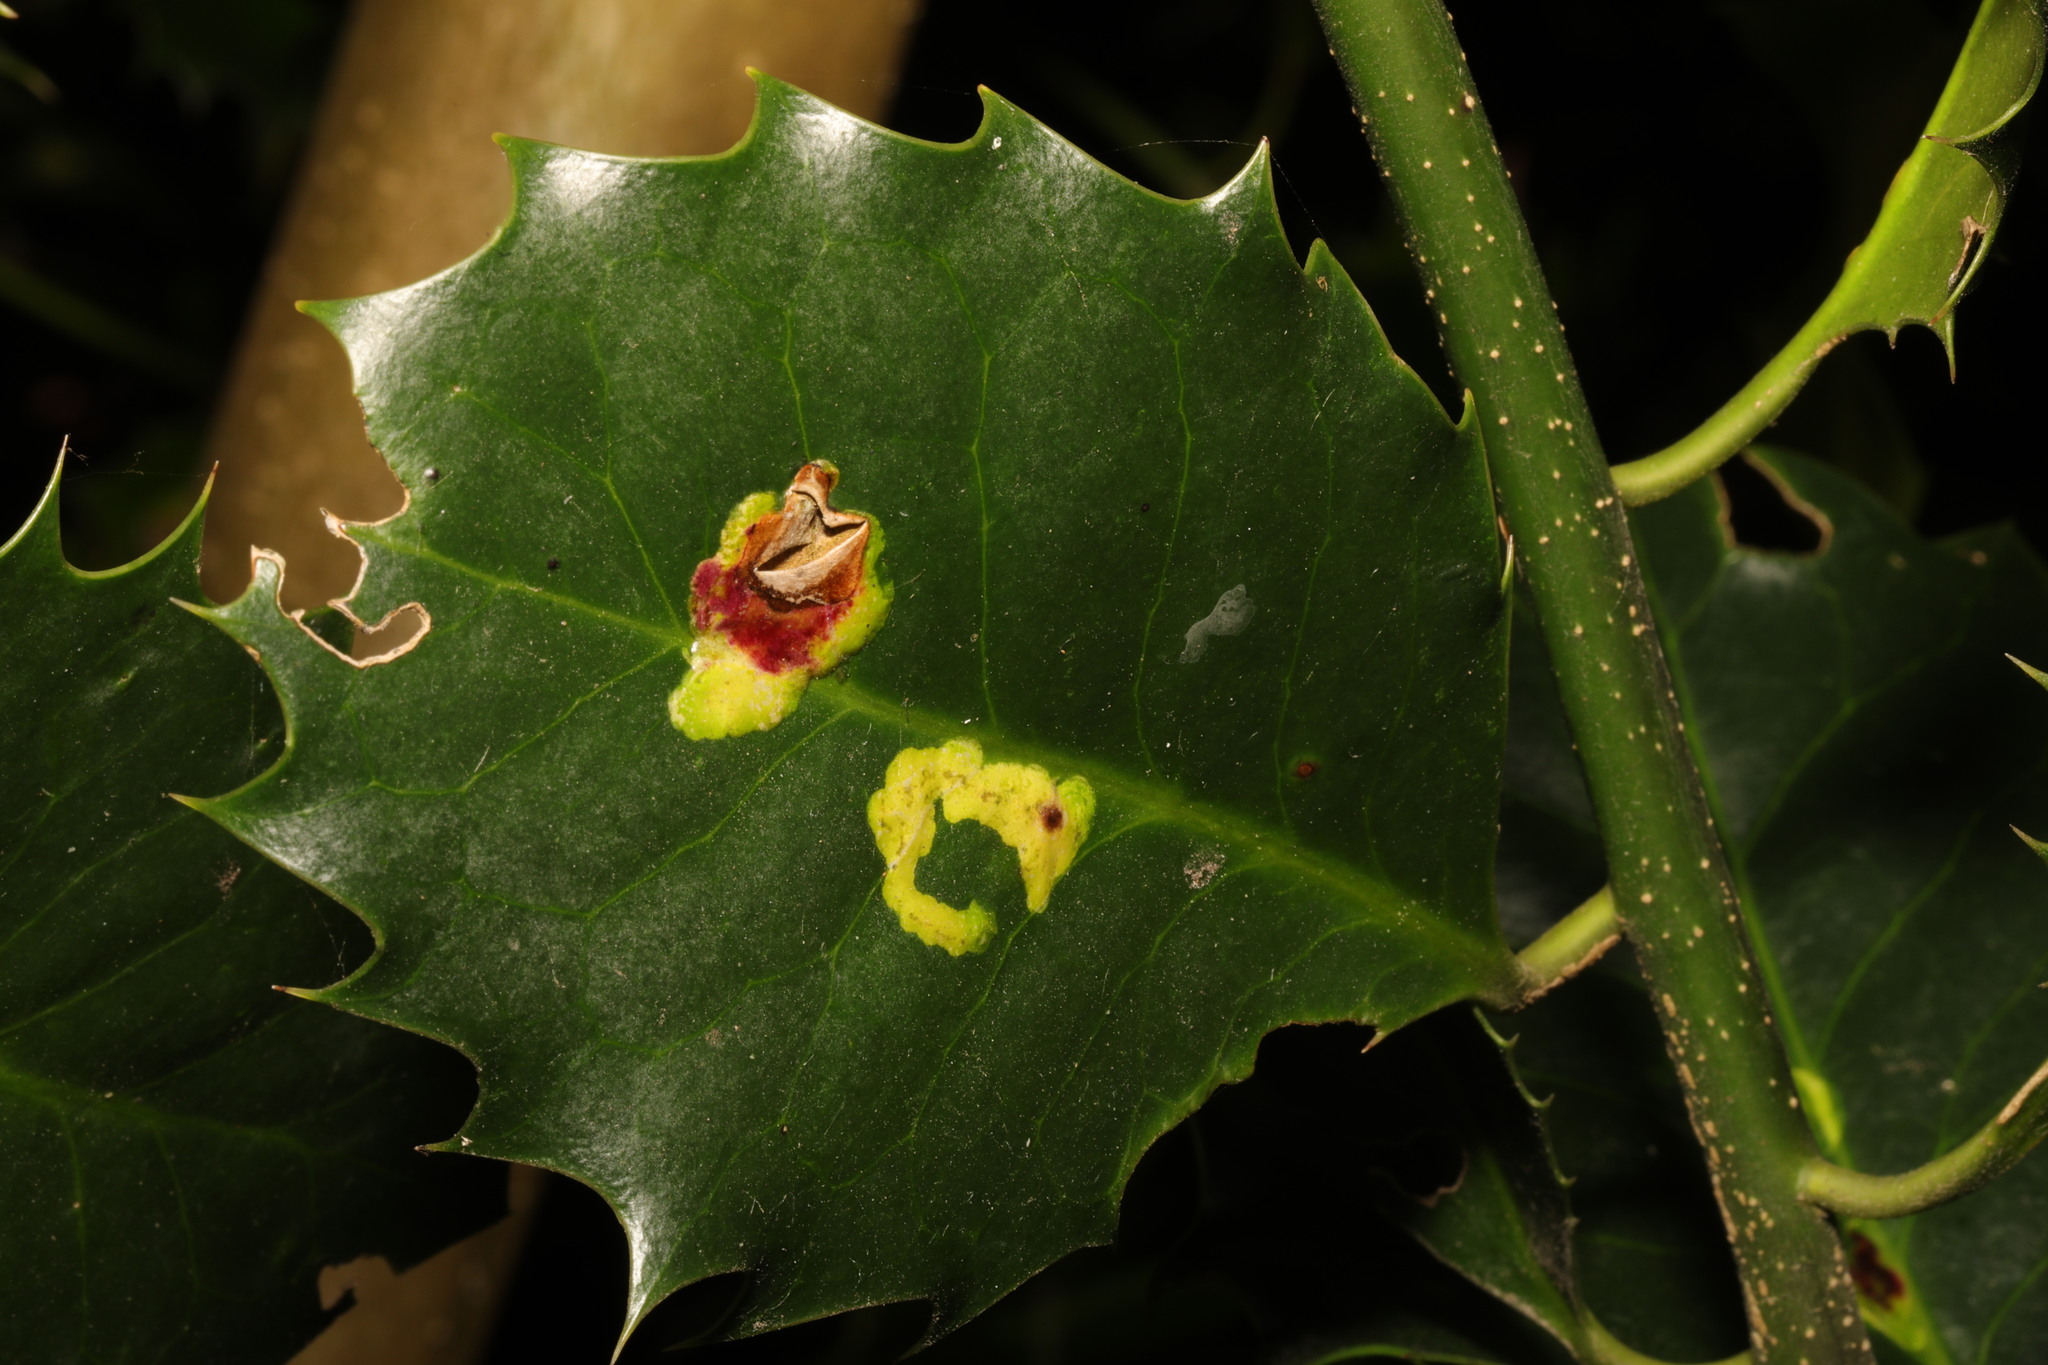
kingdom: Plantae
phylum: Tracheophyta
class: Magnoliopsida
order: Aquifoliales
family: Aquifoliaceae
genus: Ilex
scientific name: Ilex aquifolium
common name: English holly
